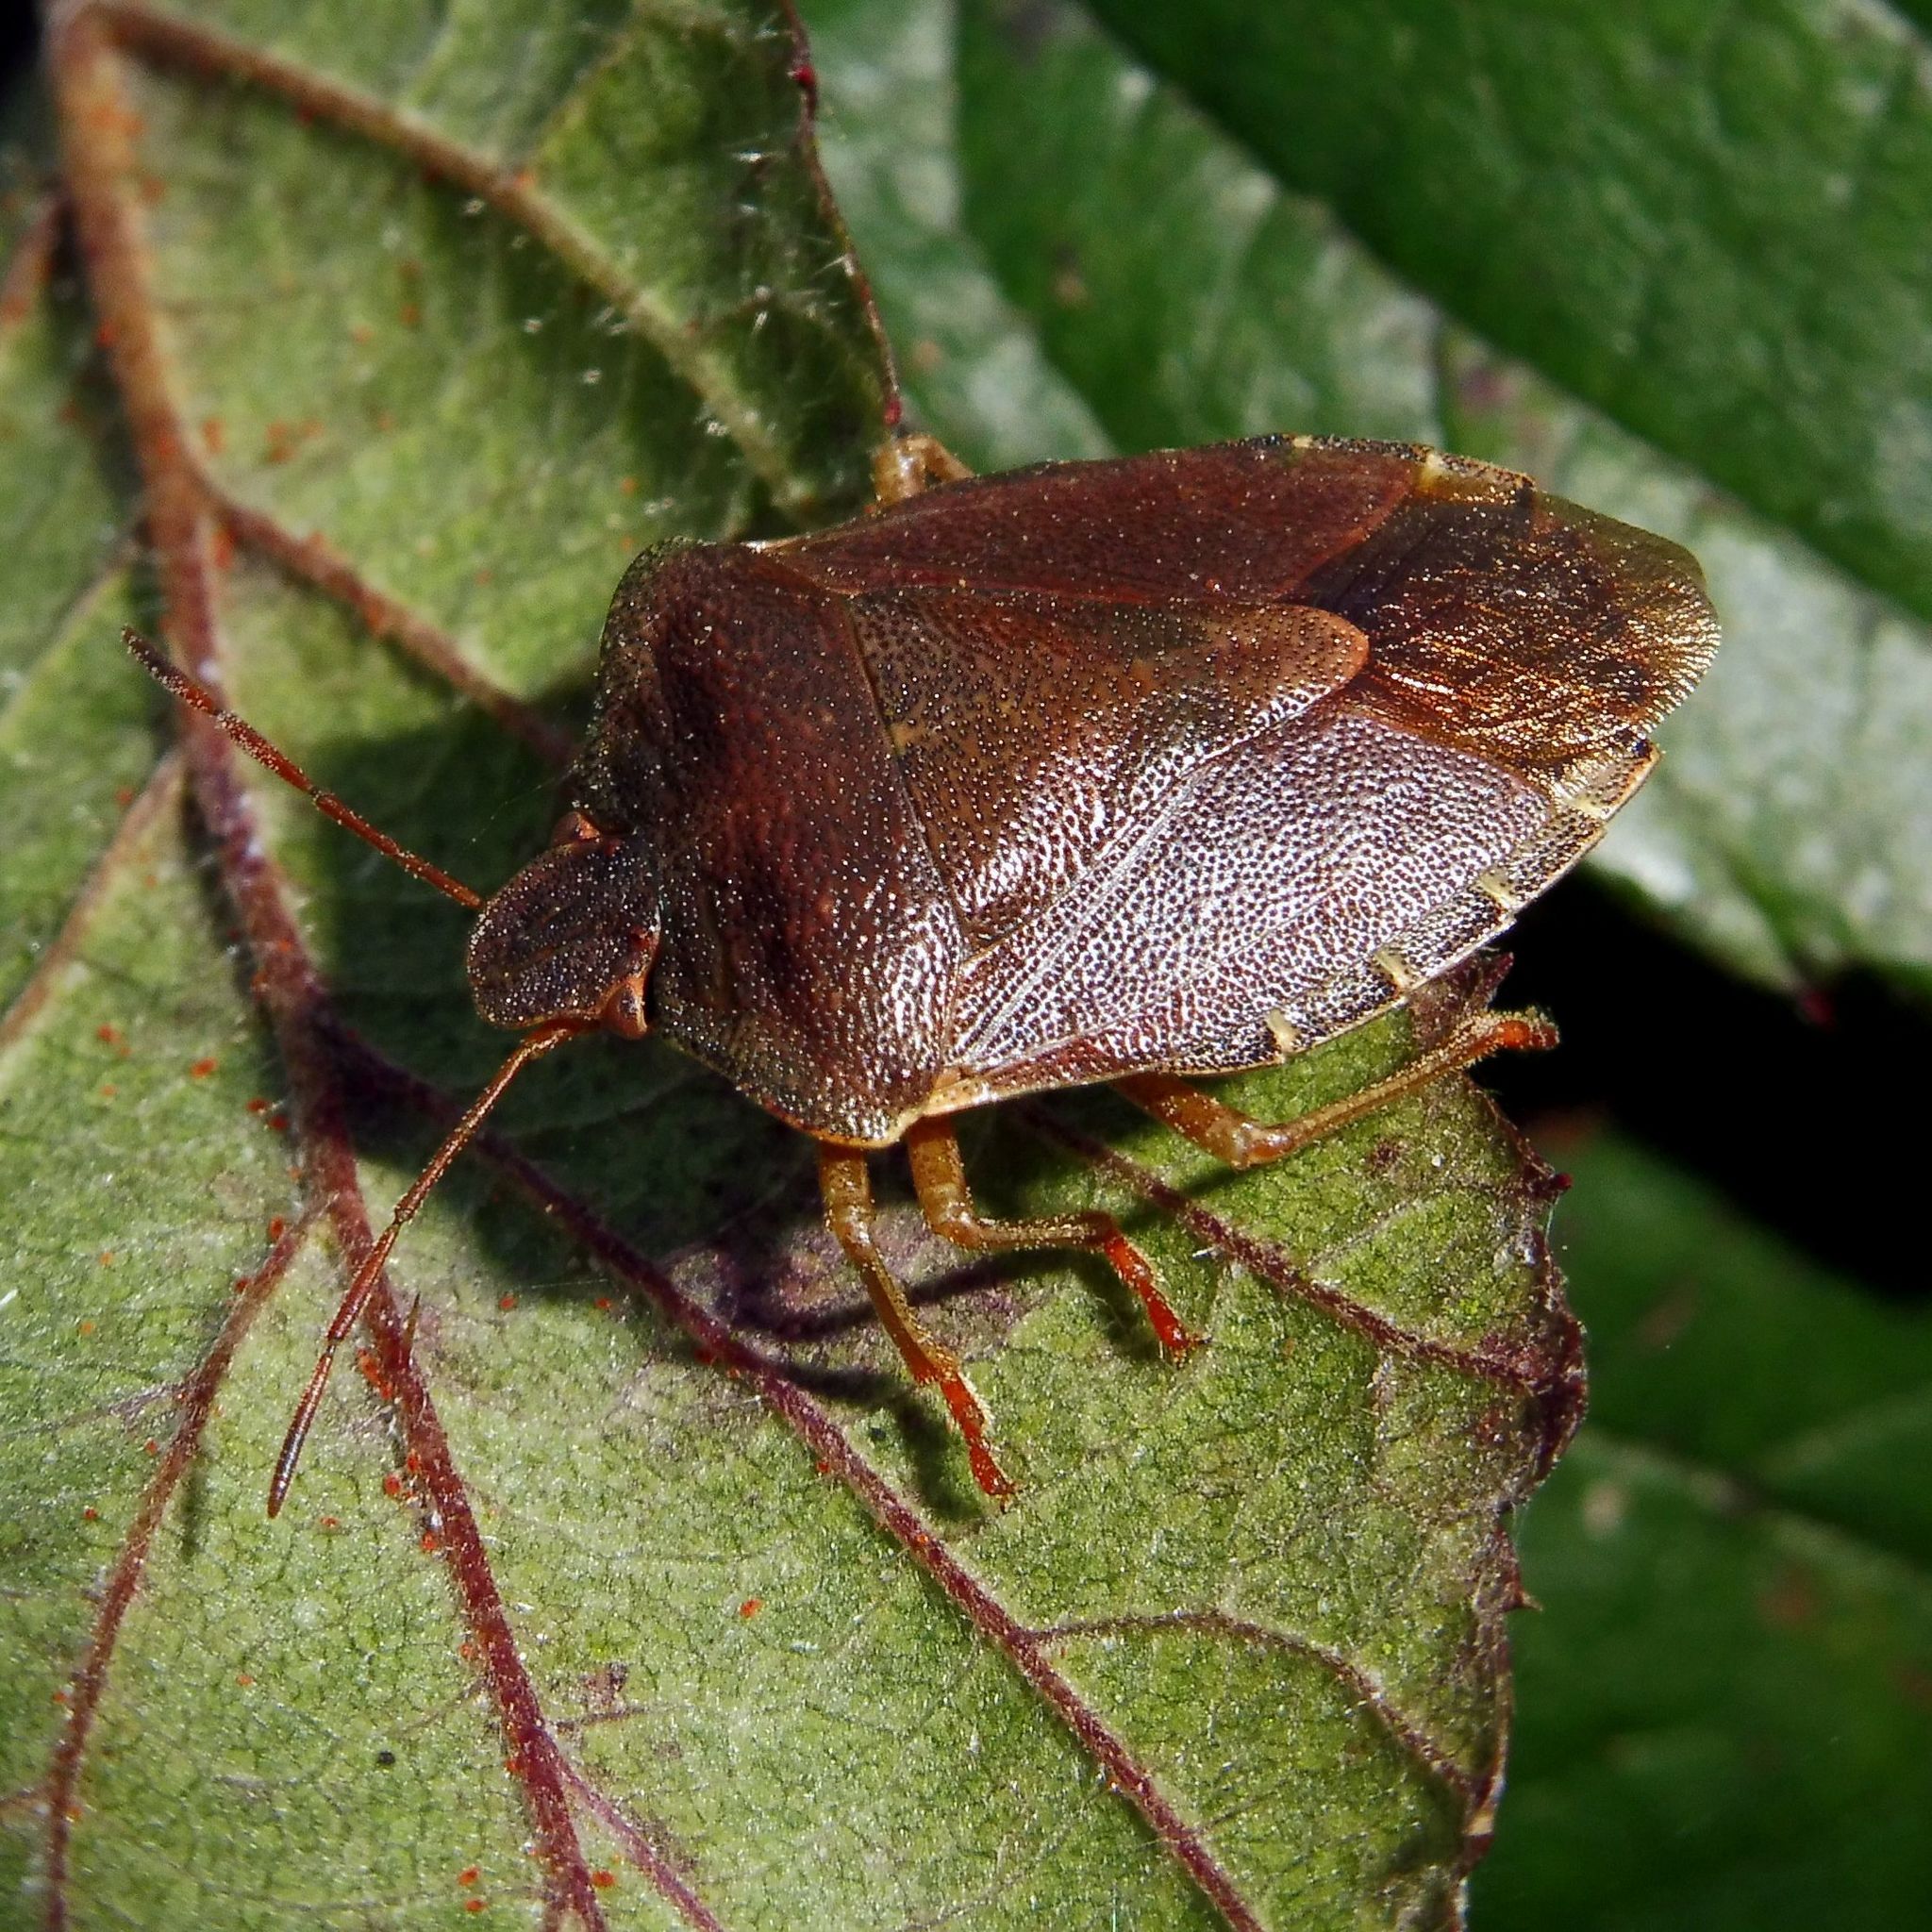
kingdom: Animalia
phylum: Arthropoda
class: Insecta
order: Hemiptera
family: Pentatomidae
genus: Palomena
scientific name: Palomena prasina
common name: Green shieldbug
